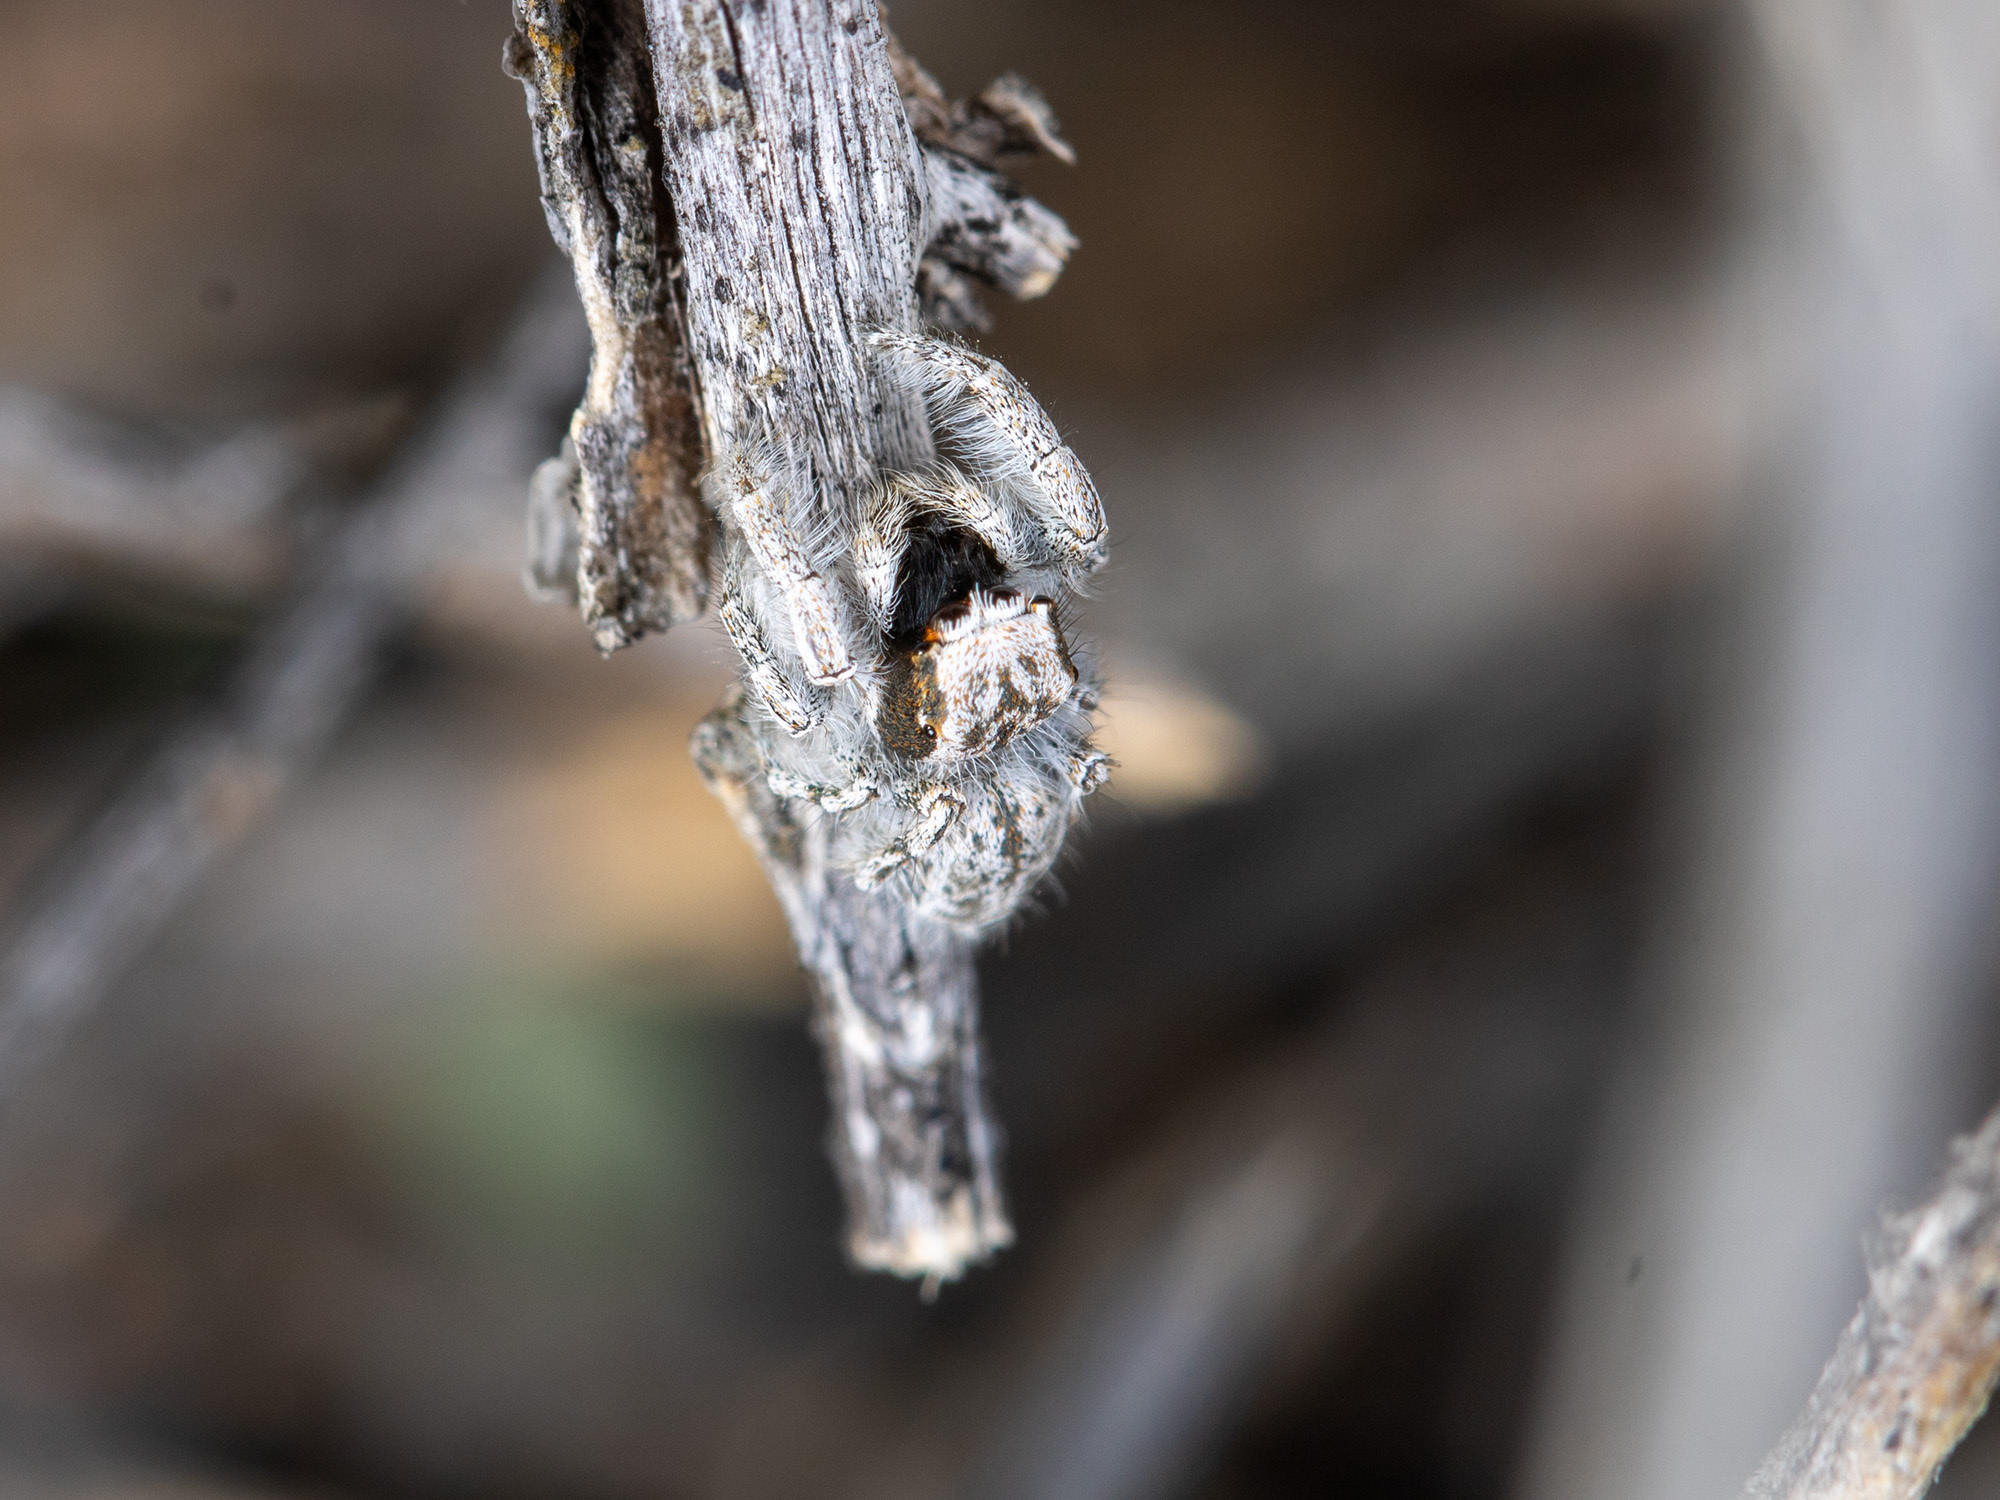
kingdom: Animalia
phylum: Arthropoda
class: Arachnida
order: Araneae
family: Salticidae
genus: Marusyllus
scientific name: Marusyllus aralicus
